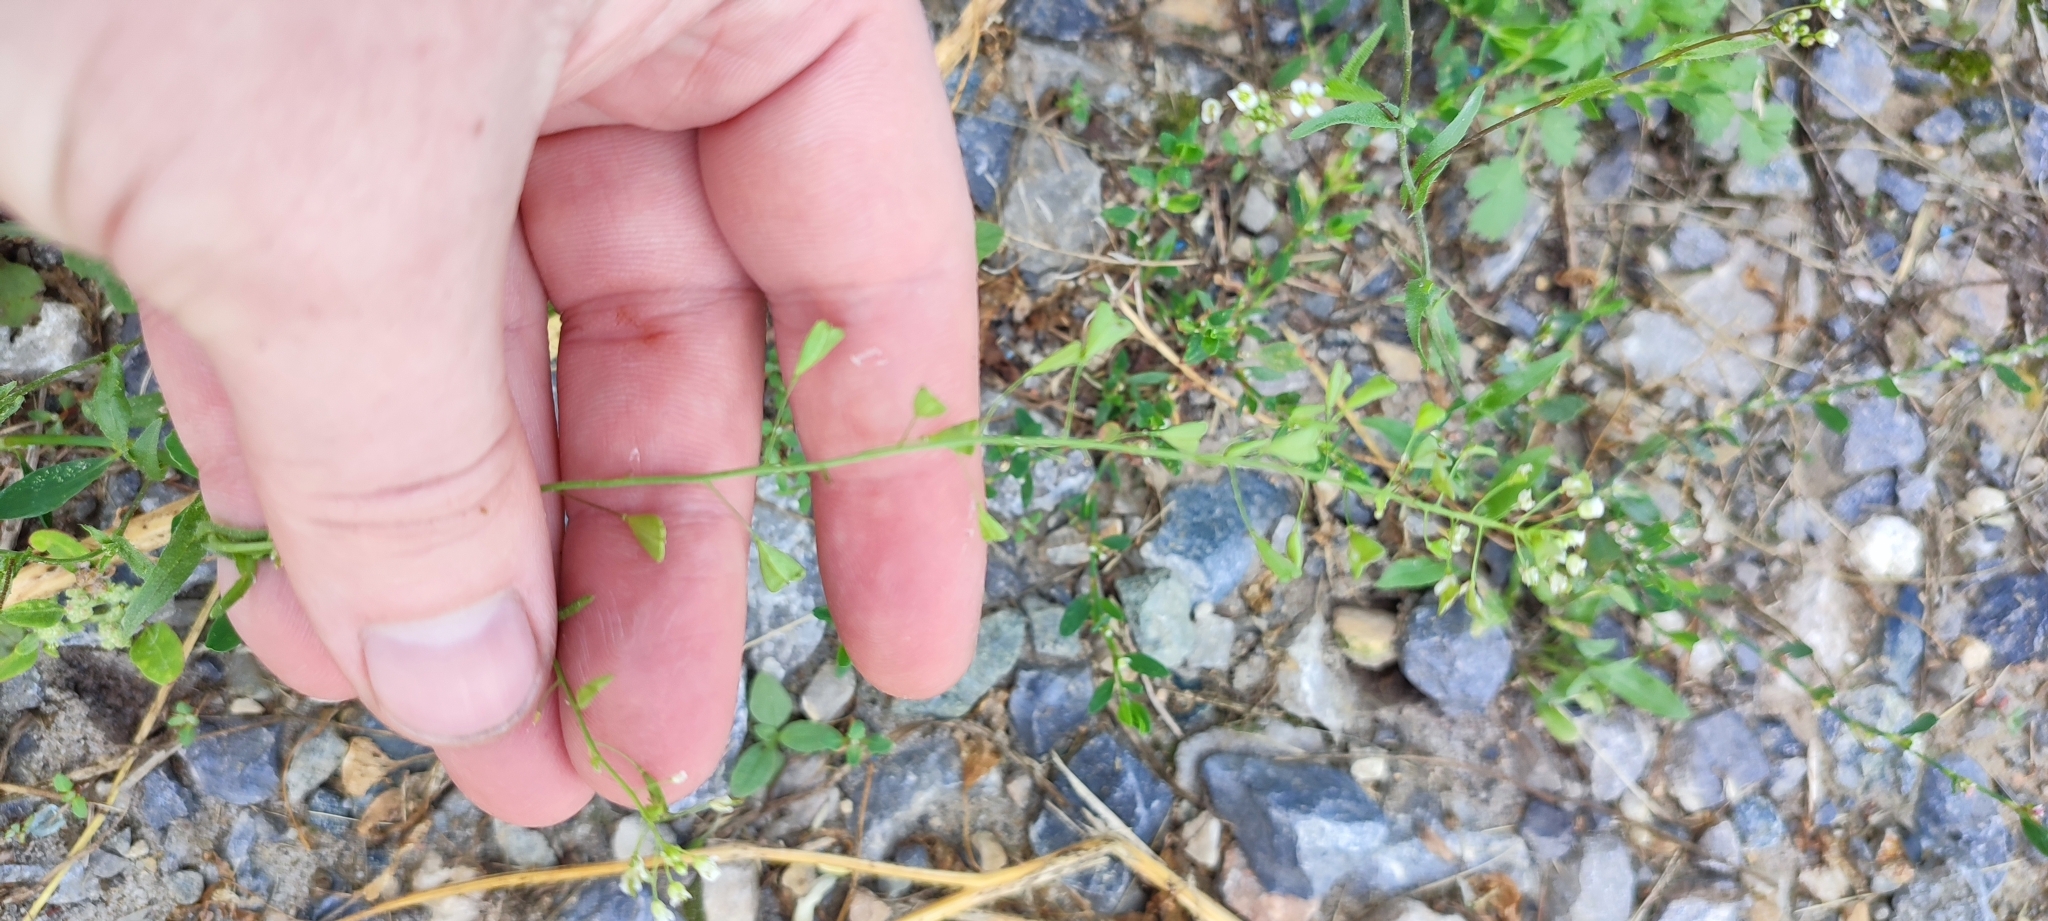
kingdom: Plantae
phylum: Tracheophyta
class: Magnoliopsida
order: Brassicales
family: Brassicaceae
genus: Capsella
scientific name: Capsella bursa-pastoris
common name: Shepherd's purse
